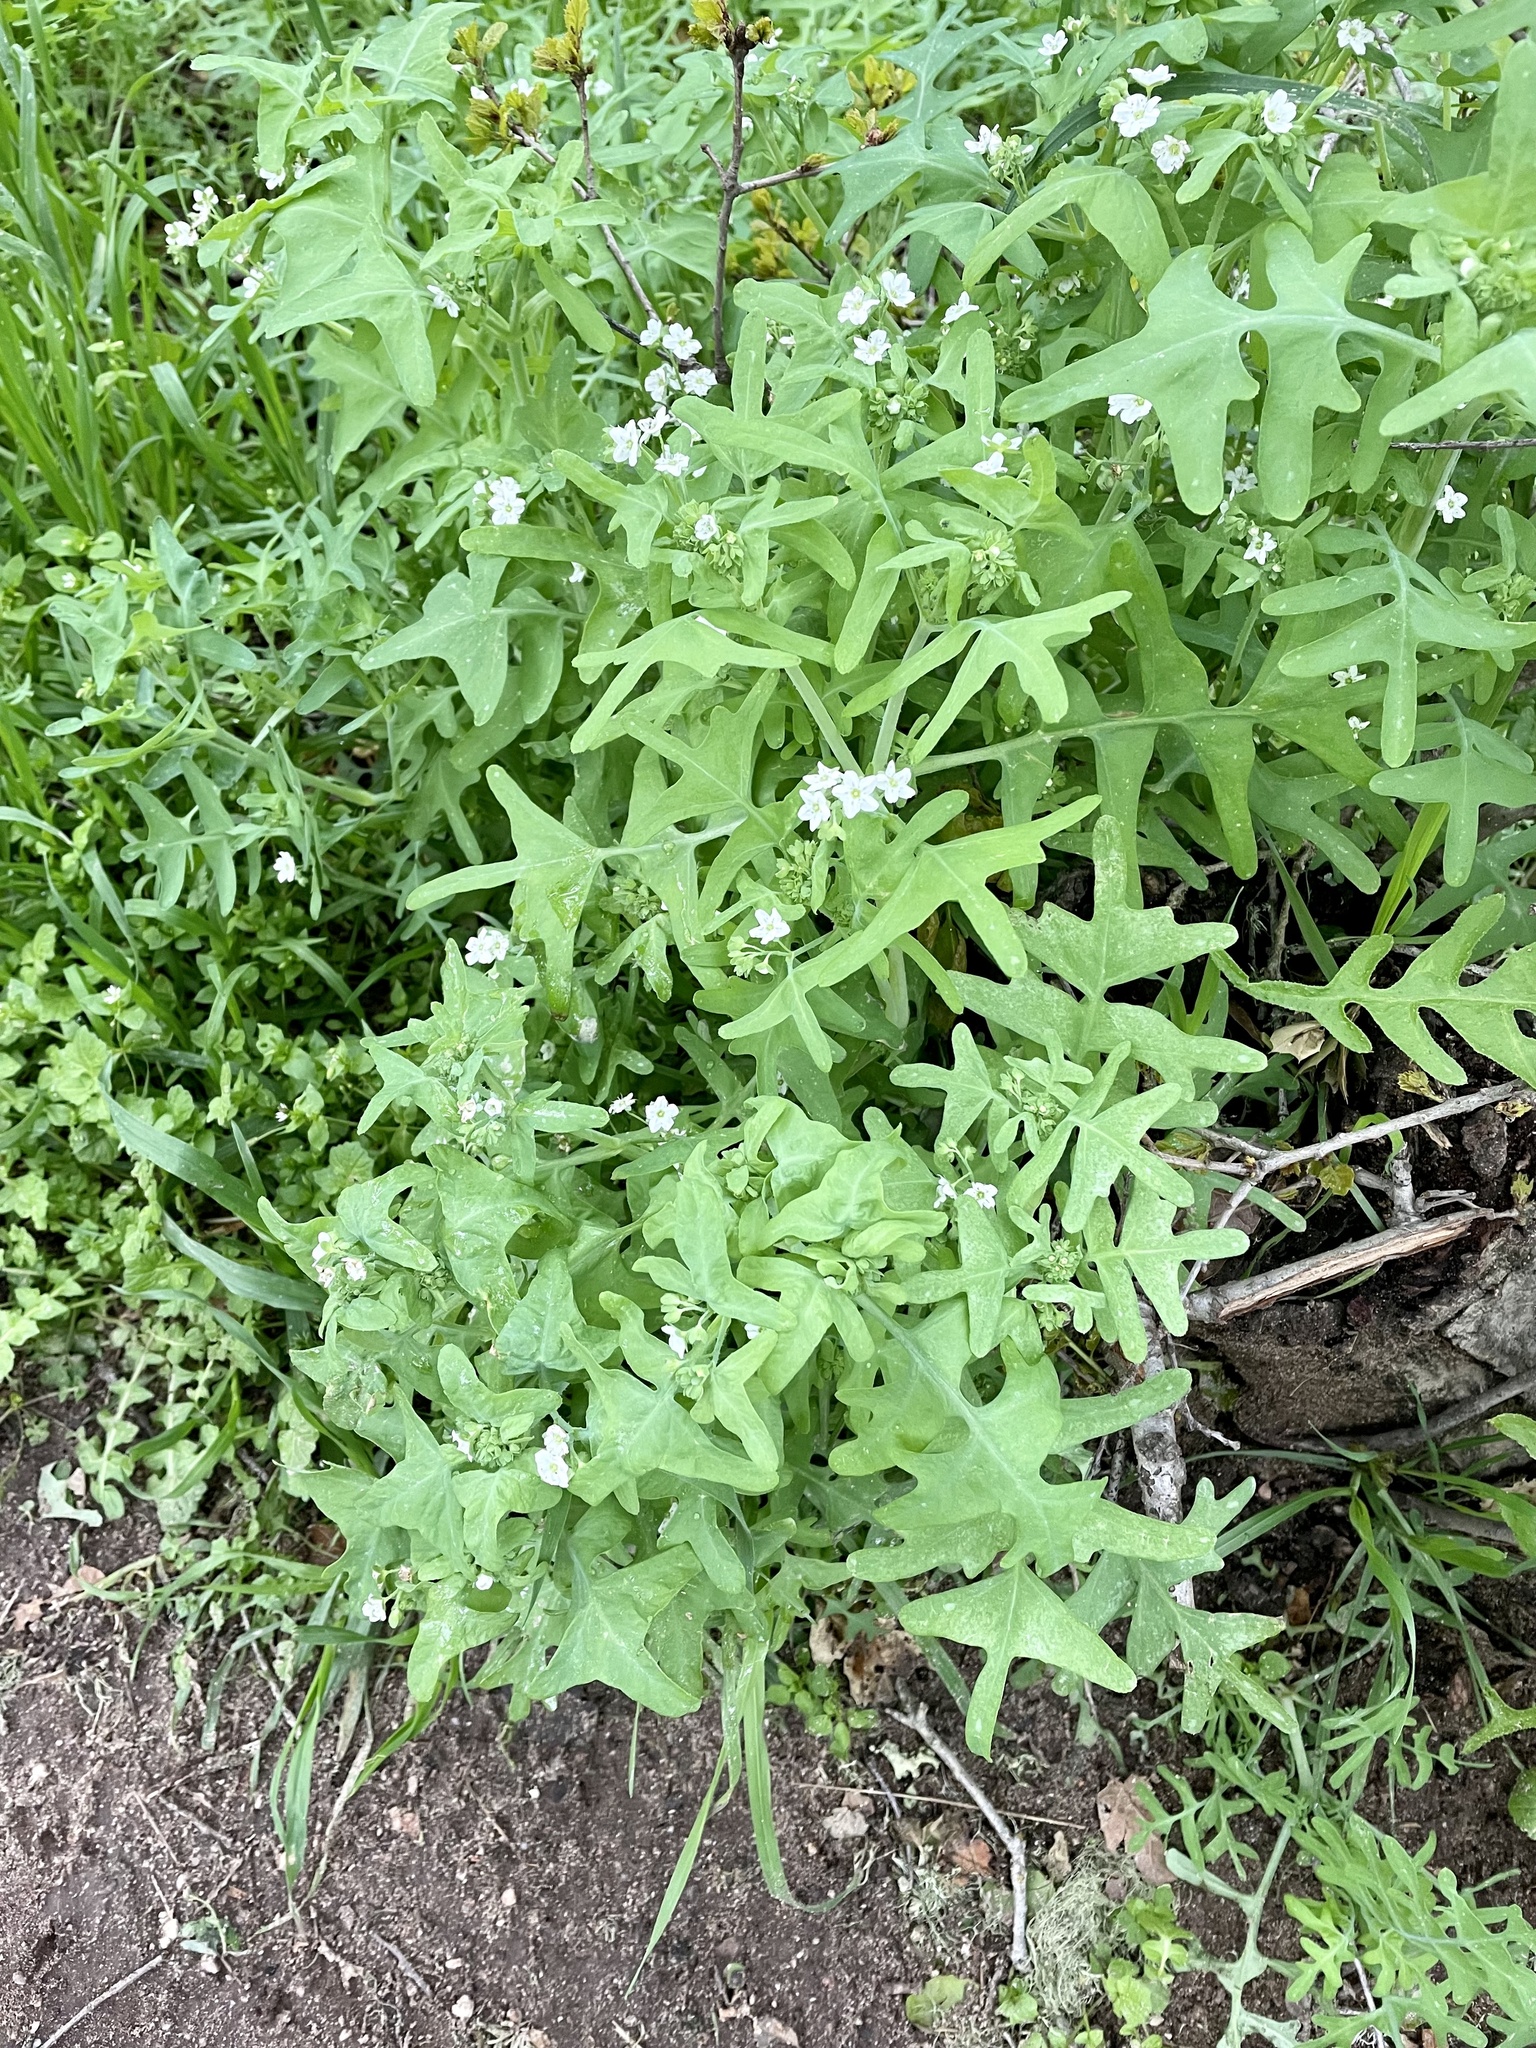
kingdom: Plantae
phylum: Tracheophyta
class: Magnoliopsida
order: Boraginales
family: Hydrophyllaceae
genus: Pholistoma
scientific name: Pholistoma membranaceum
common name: White fiesta-flower
